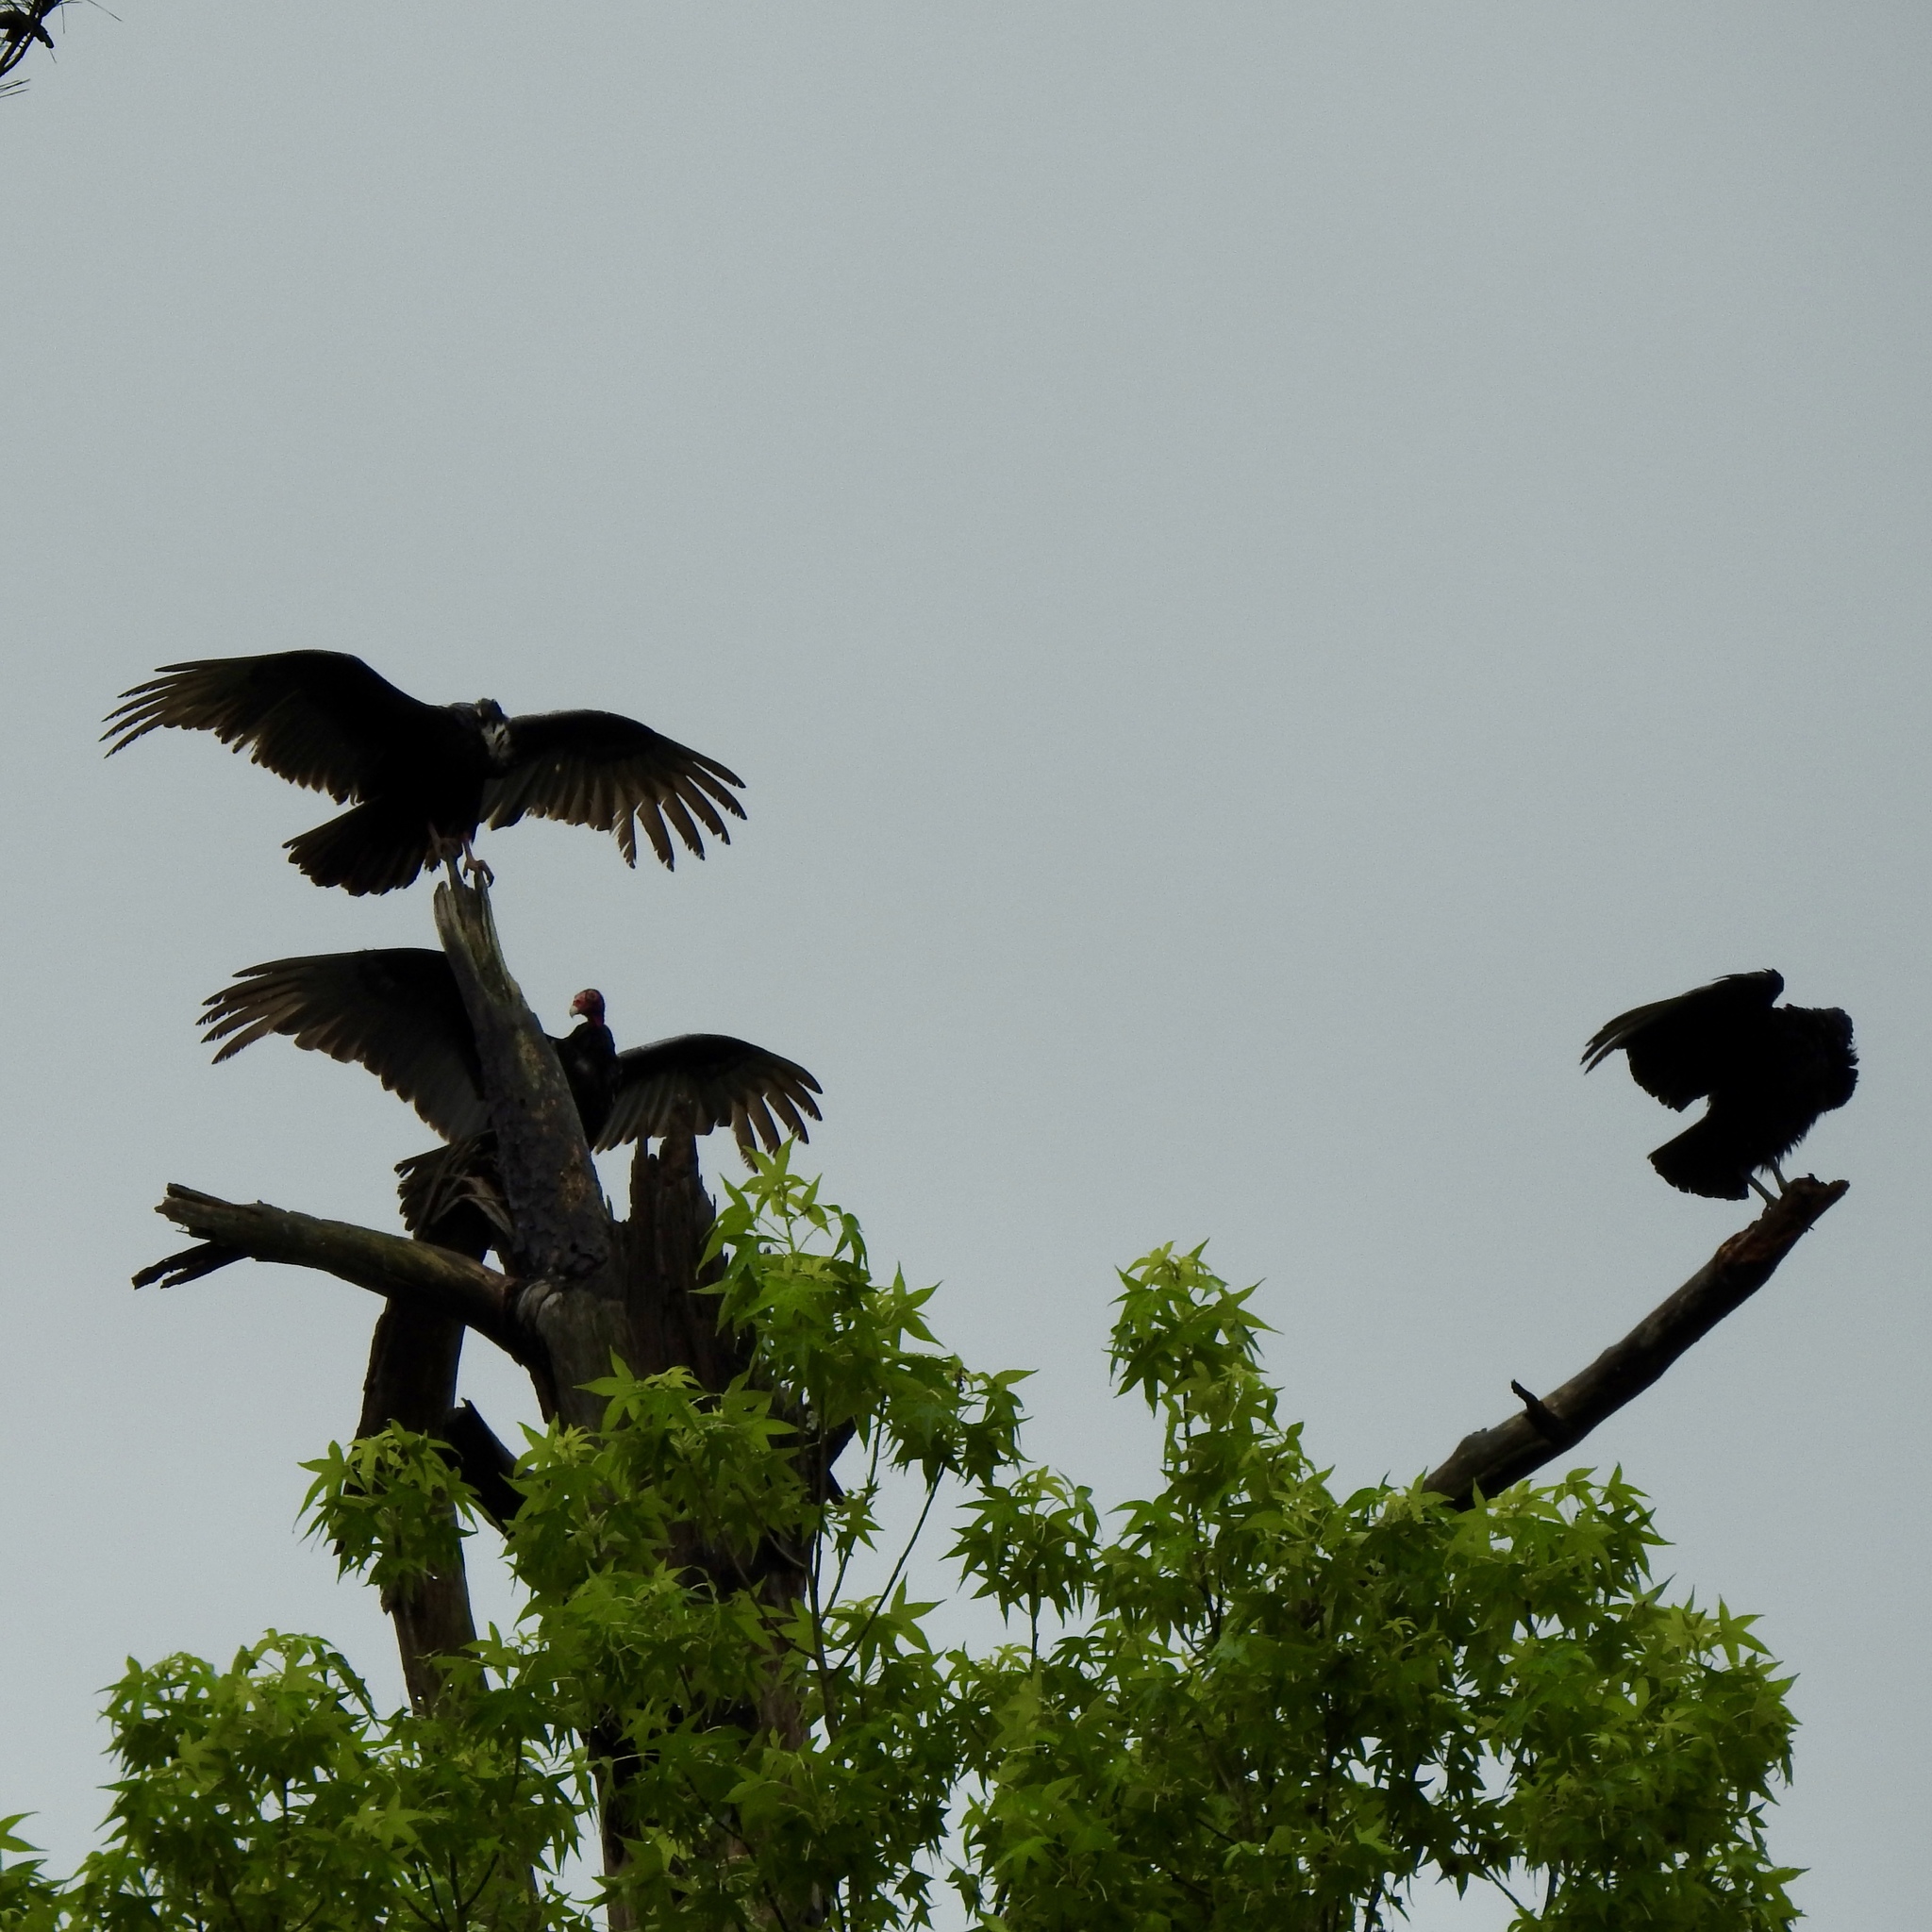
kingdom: Animalia
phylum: Chordata
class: Aves
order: Accipitriformes
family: Cathartidae
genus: Cathartes
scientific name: Cathartes aura
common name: Turkey vulture
